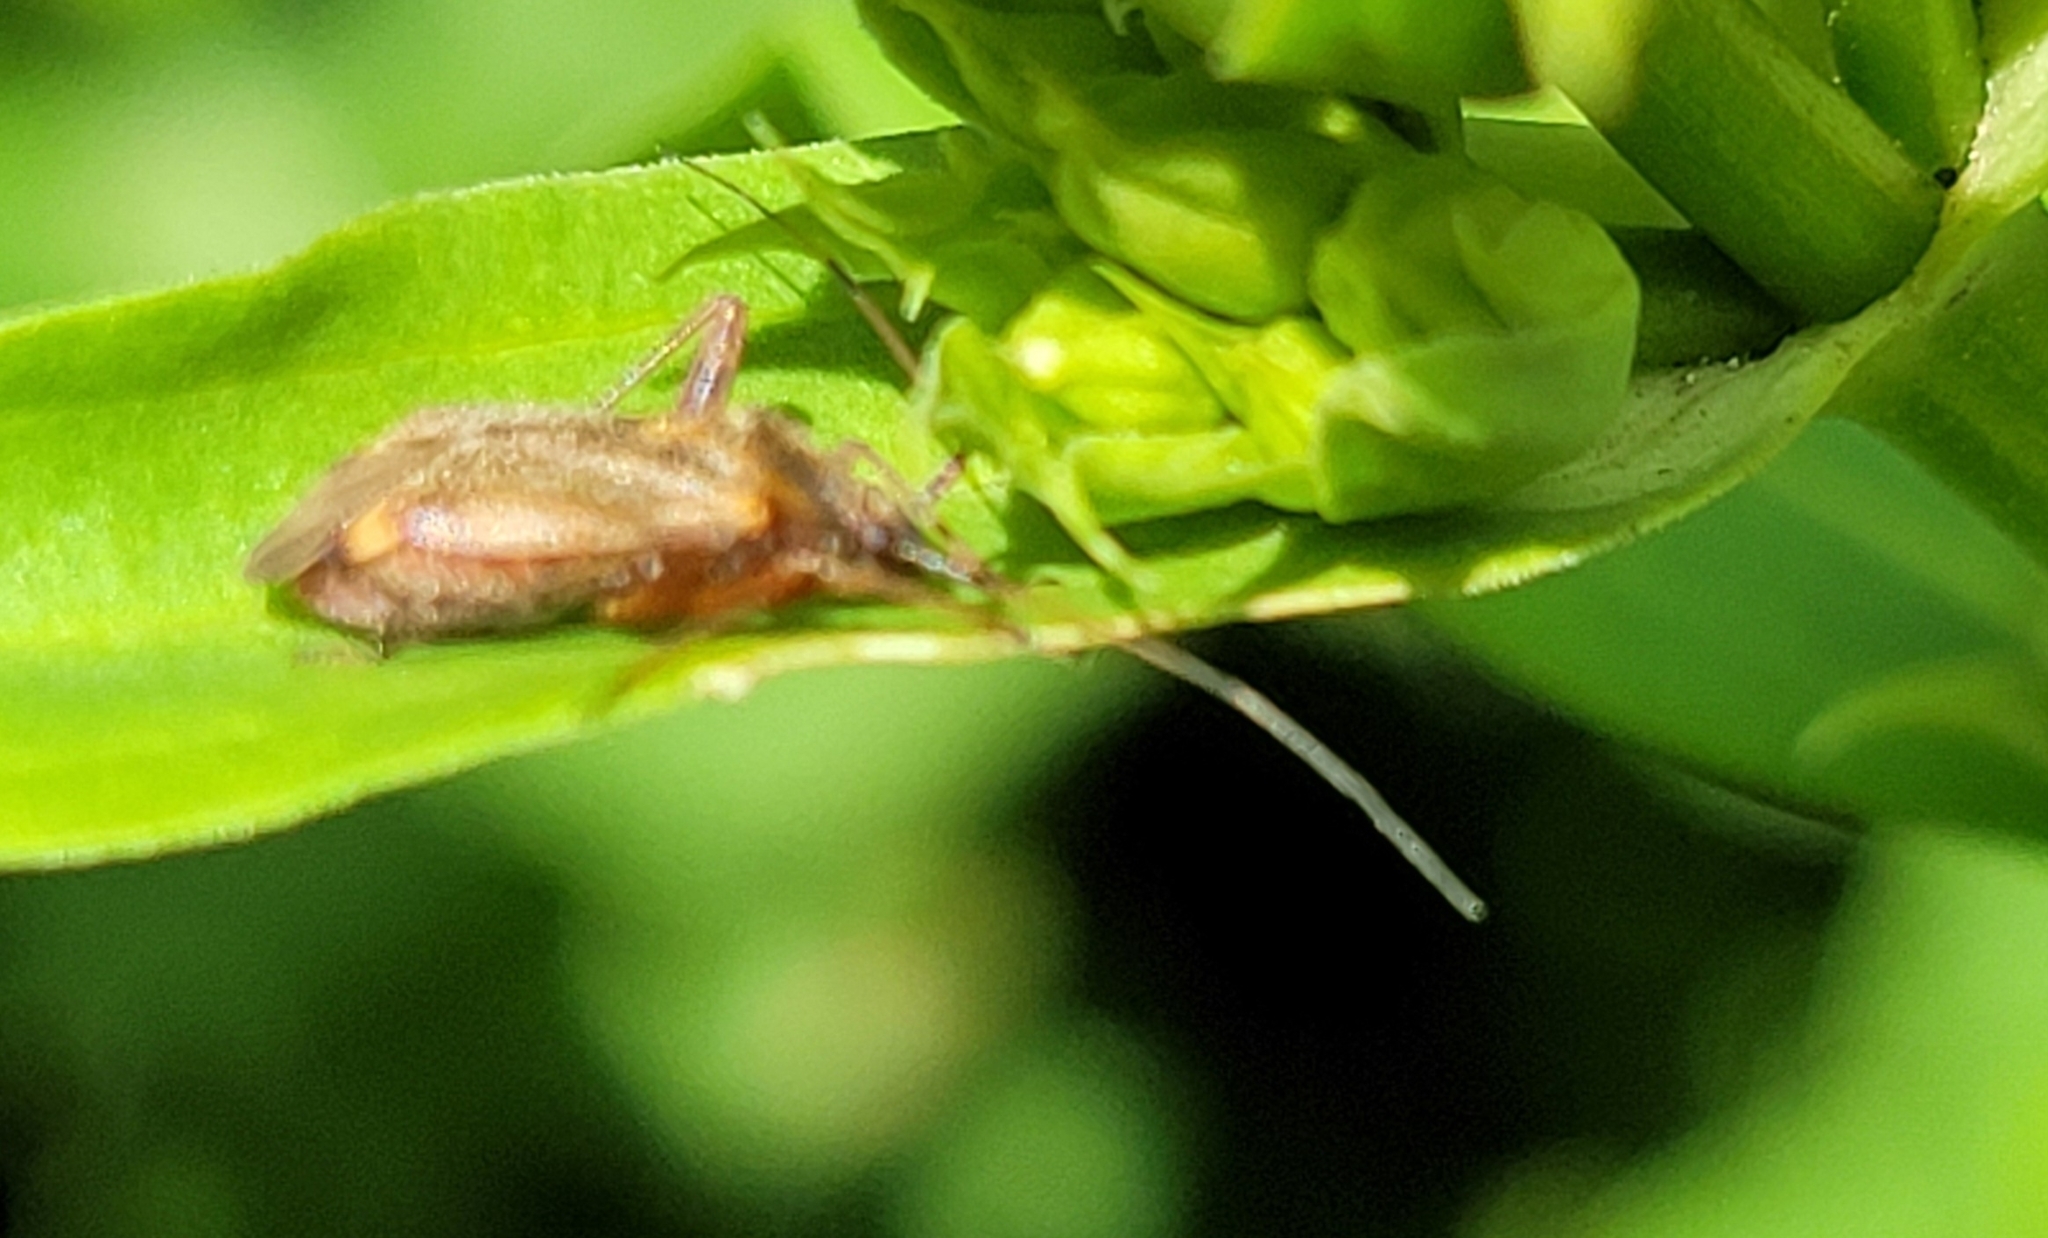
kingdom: Animalia
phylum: Arthropoda
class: Insecta
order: Hemiptera
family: Miridae
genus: Closterotomus
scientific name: Closterotomus fulvomaculatus
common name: Spotted plant bug
